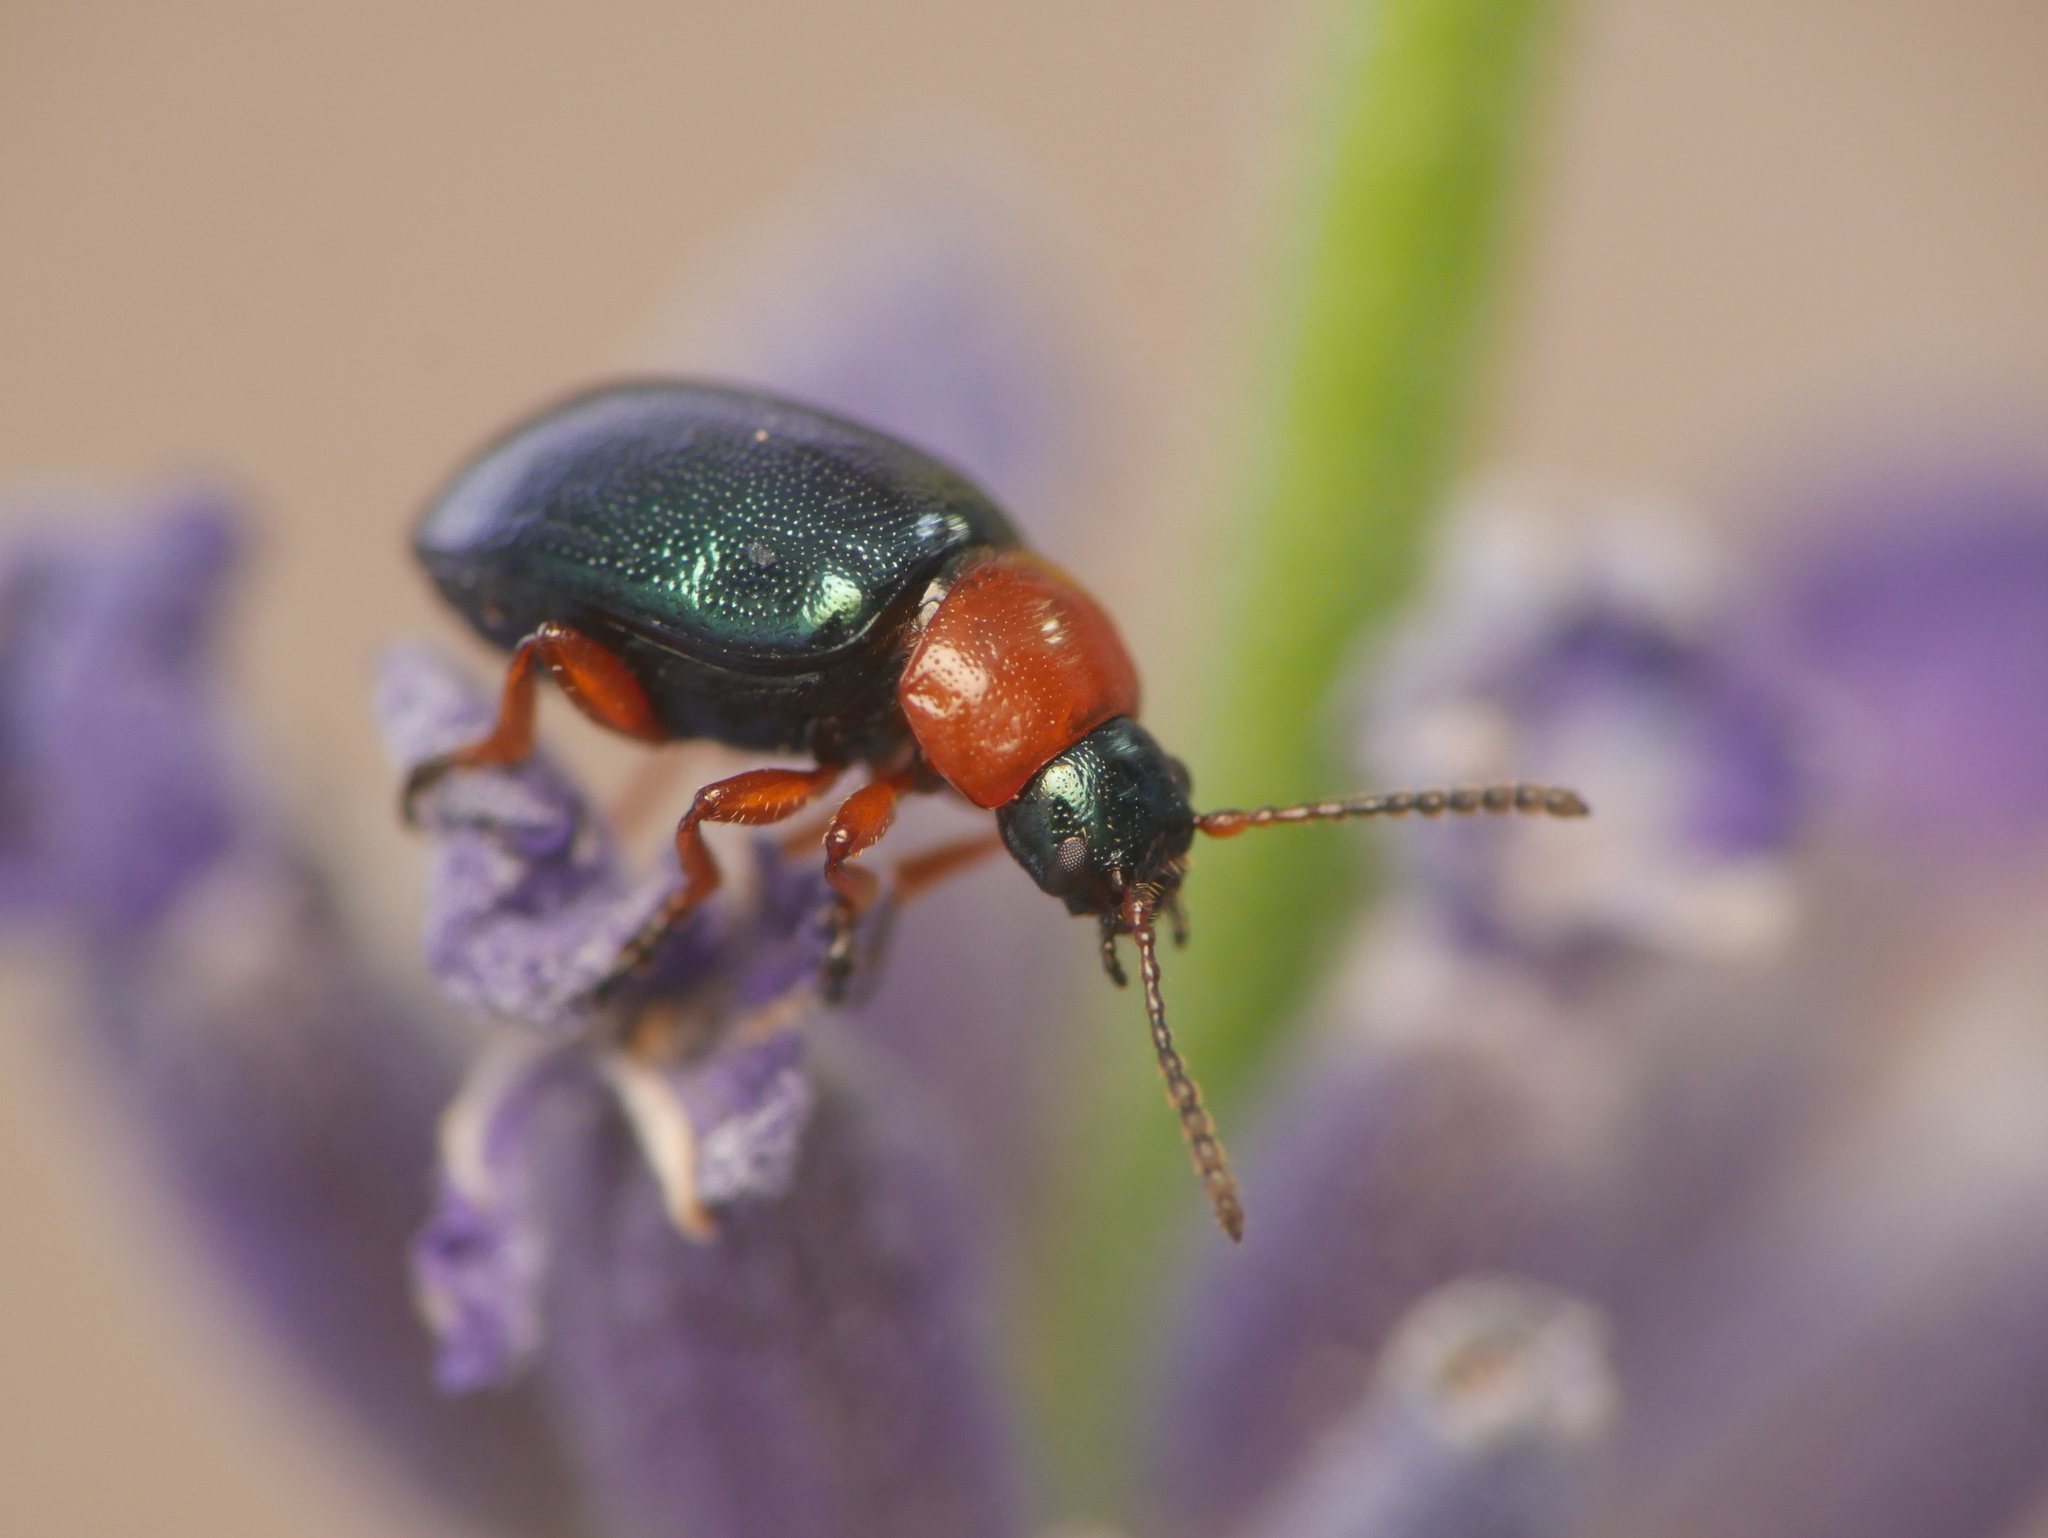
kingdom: Animalia
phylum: Arthropoda
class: Insecta
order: Coleoptera
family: Chrysomelidae
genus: Gastrophysa
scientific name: Gastrophysa polygoni
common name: Knotweed leaf beetle
